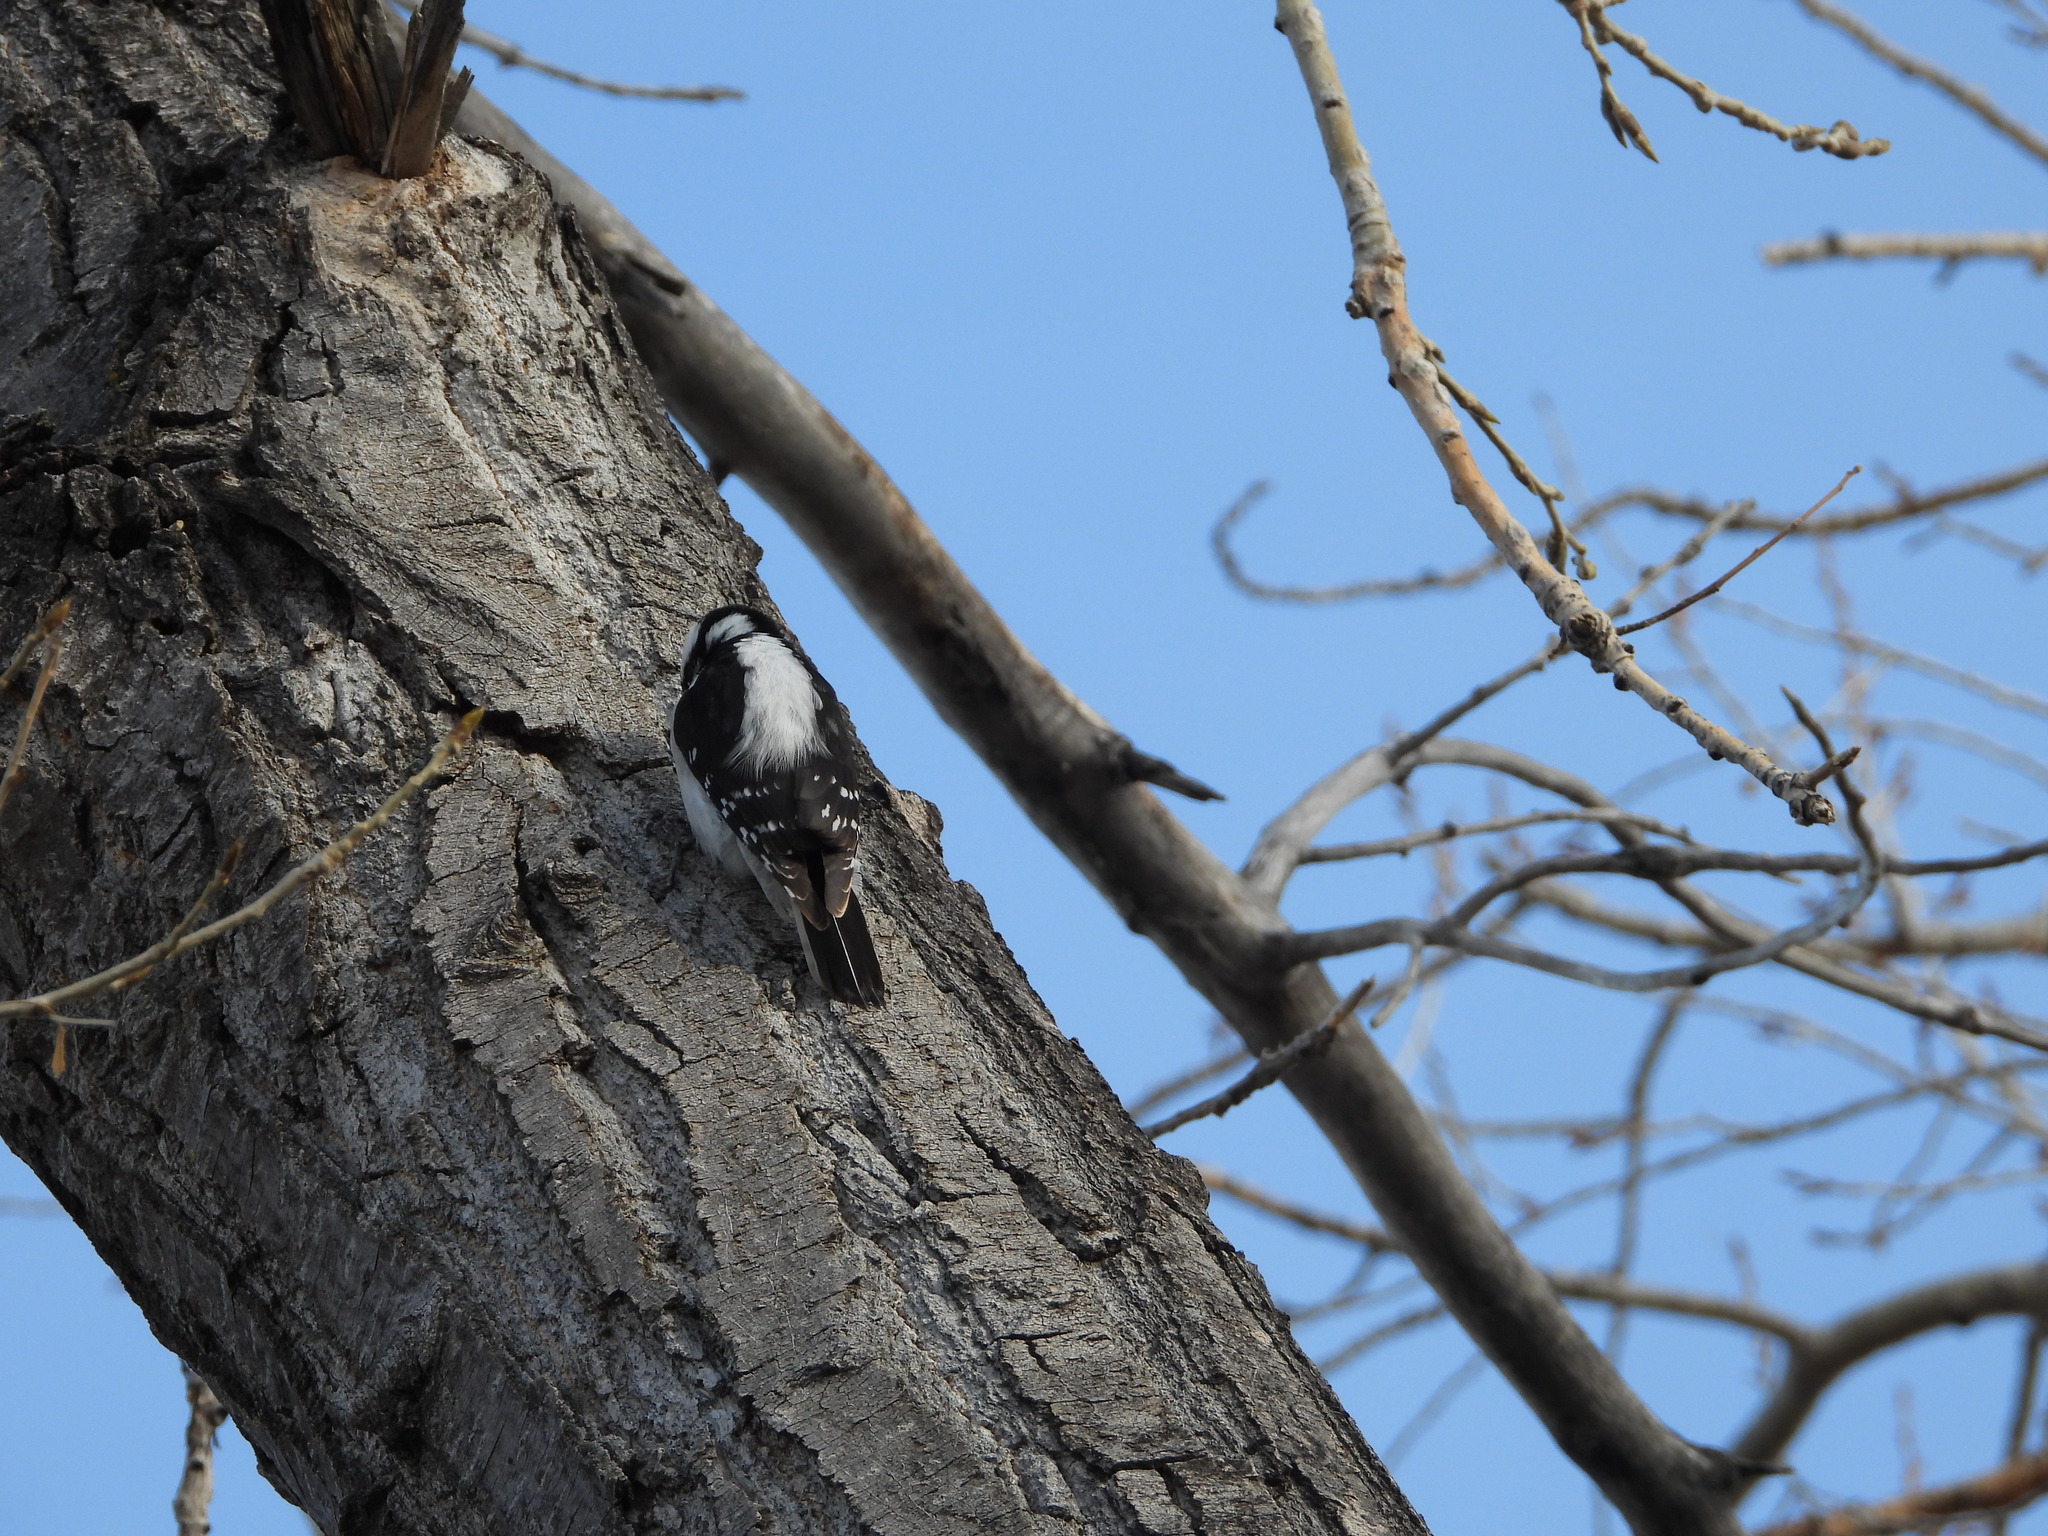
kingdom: Animalia
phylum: Chordata
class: Aves
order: Piciformes
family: Picidae
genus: Dryobates
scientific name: Dryobates pubescens
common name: Downy woodpecker
